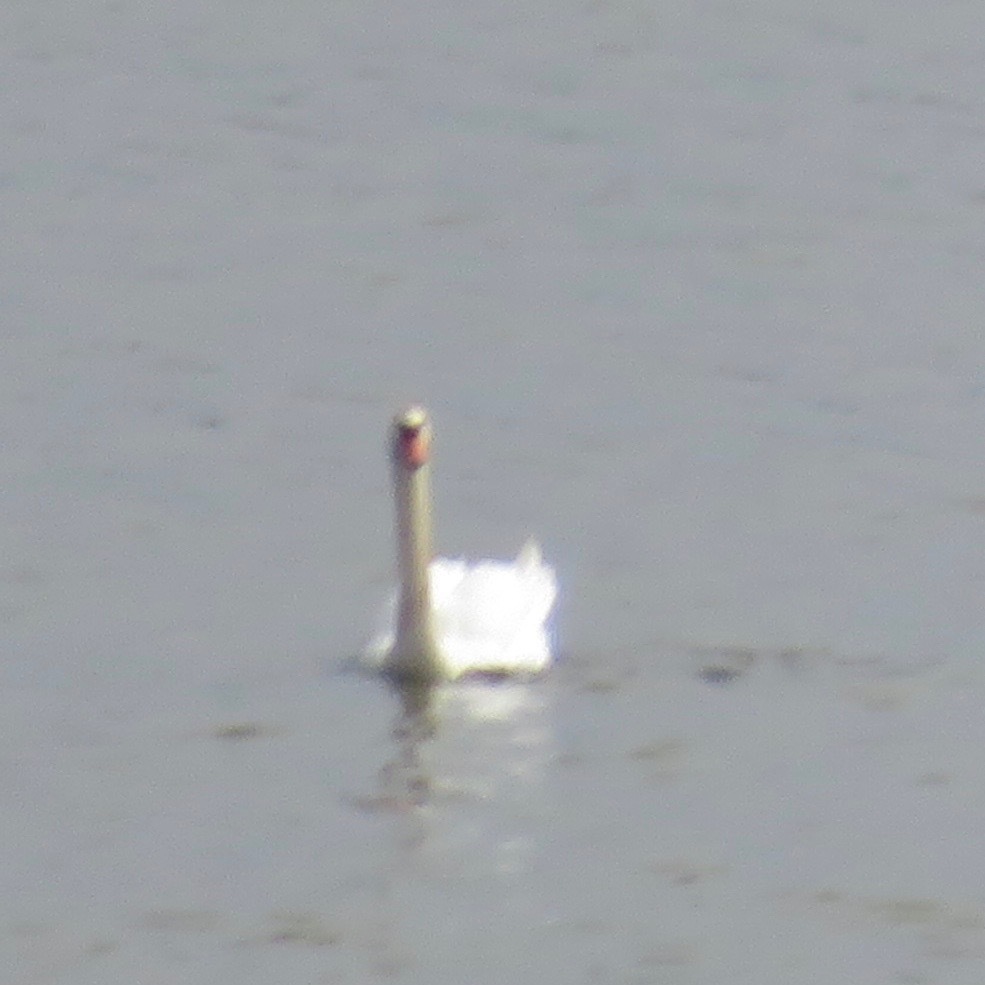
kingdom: Animalia
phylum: Chordata
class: Aves
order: Anseriformes
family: Anatidae
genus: Cygnus
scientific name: Cygnus olor
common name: Mute swan
